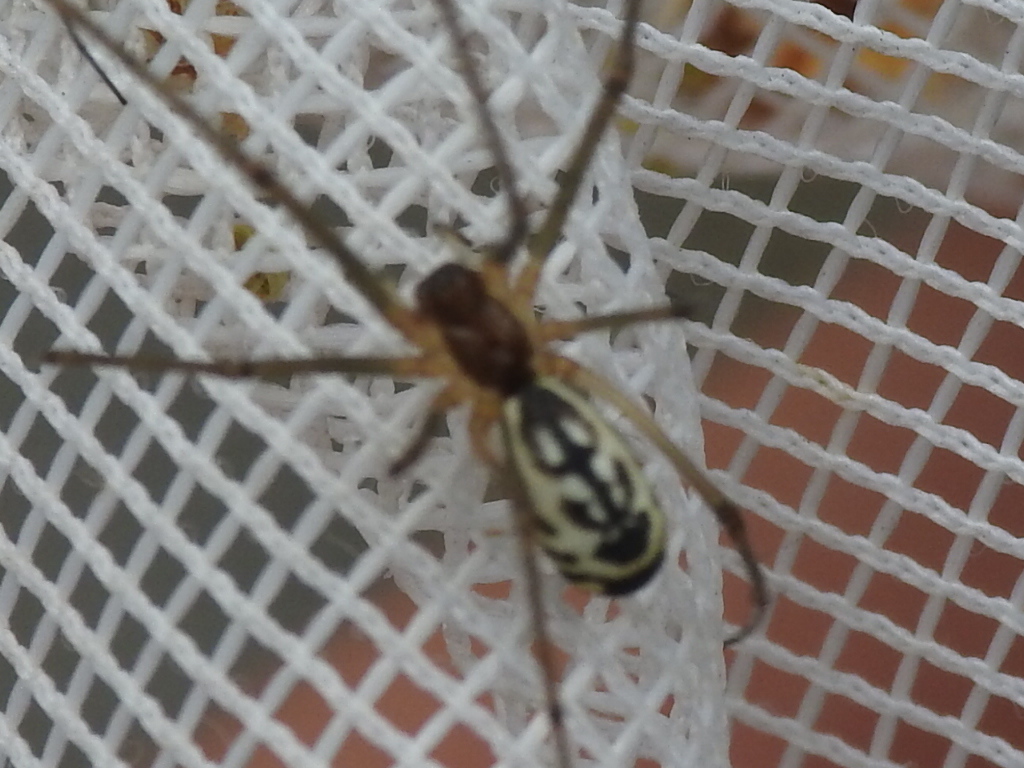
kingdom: Animalia
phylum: Arthropoda
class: Arachnida
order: Araneae
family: Linyphiidae
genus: Neriene
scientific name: Neriene radiata
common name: Filmy dome spider
